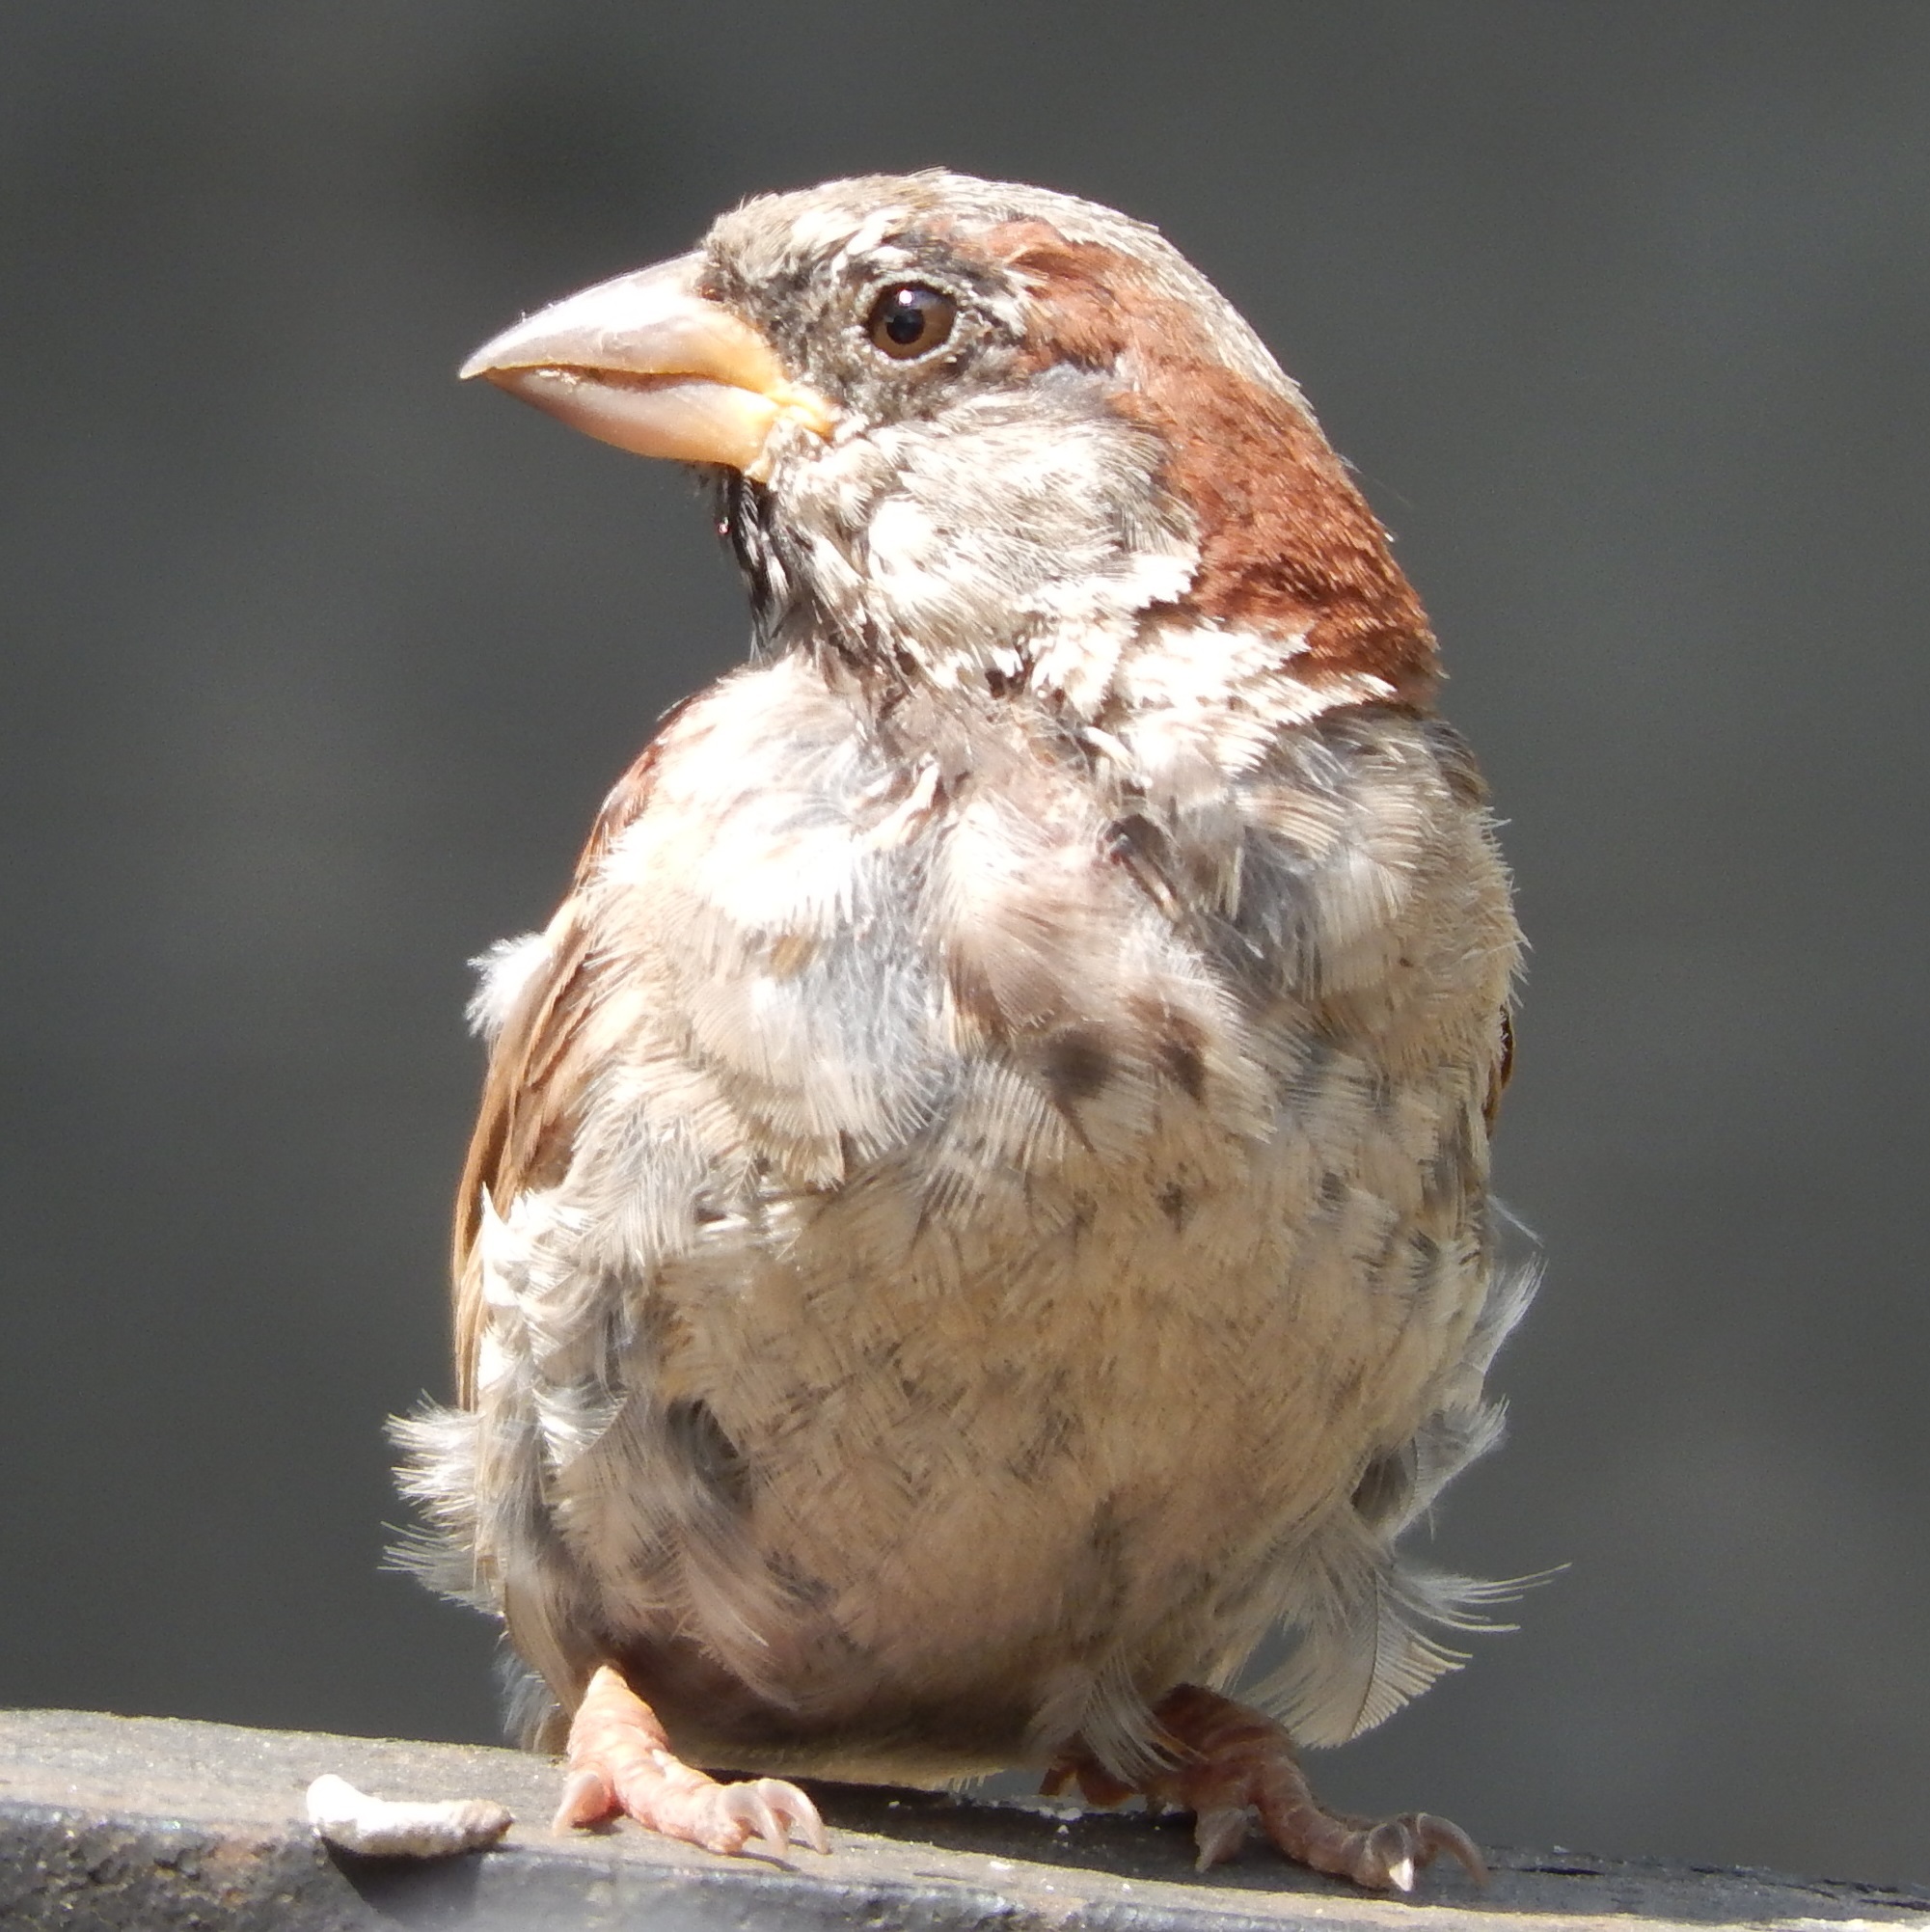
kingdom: Animalia
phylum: Chordata
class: Aves
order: Passeriformes
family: Passeridae
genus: Passer
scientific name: Passer domesticus
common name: House sparrow
